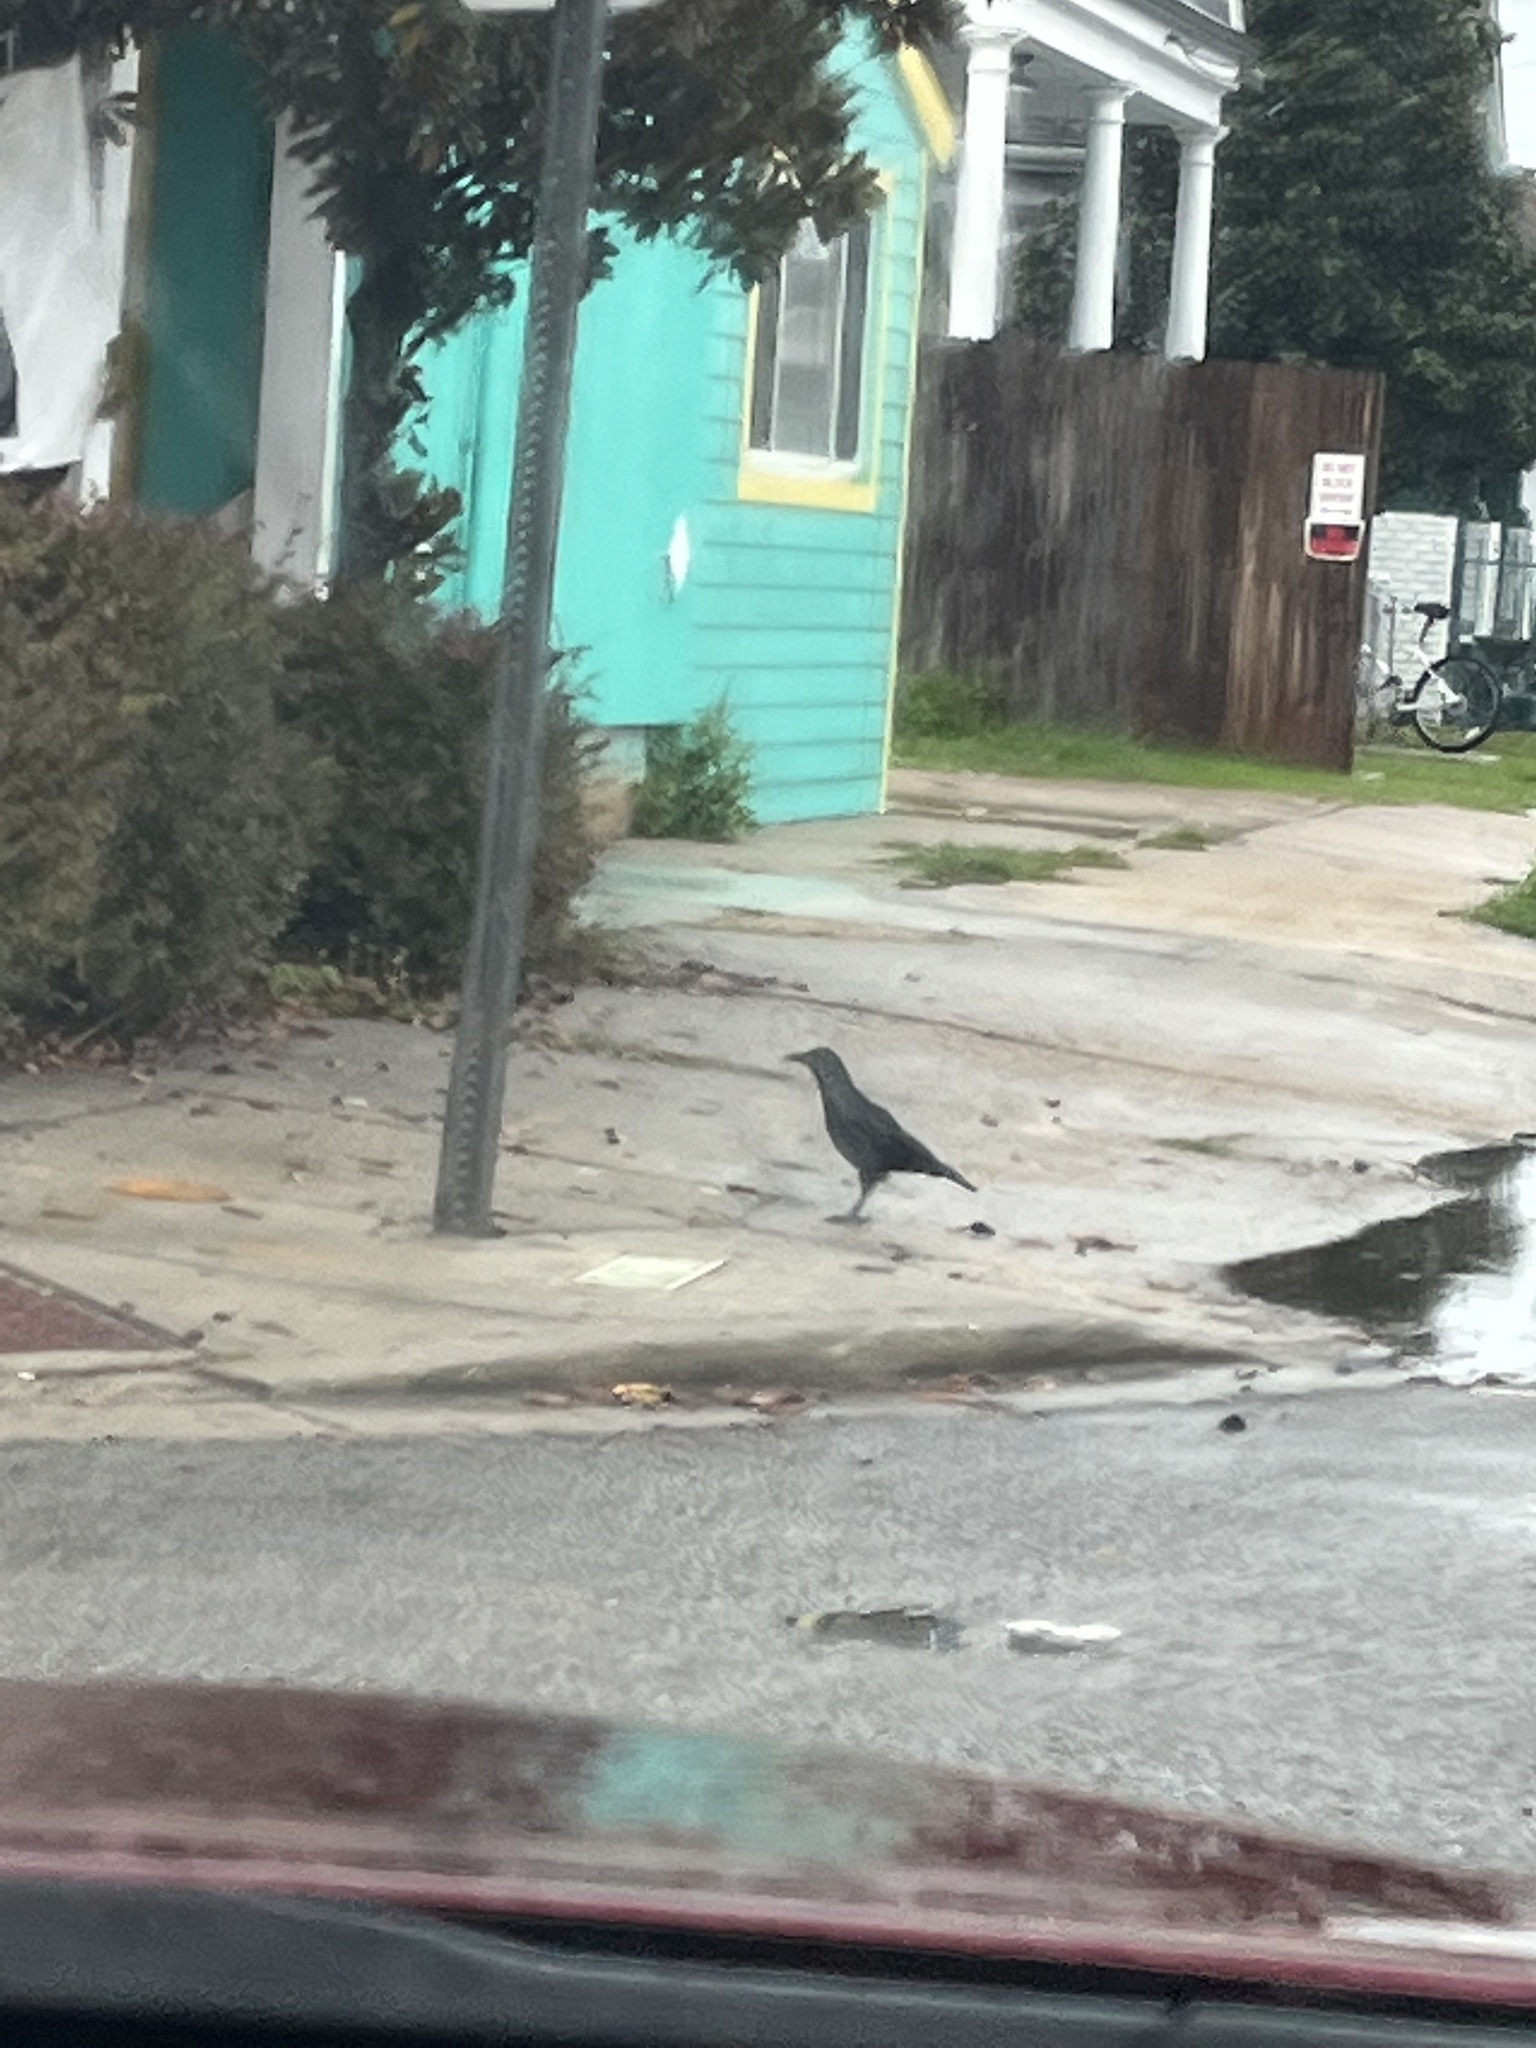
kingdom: Animalia
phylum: Chordata
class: Aves
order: Passeriformes
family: Corvidae
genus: Corvus
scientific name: Corvus
